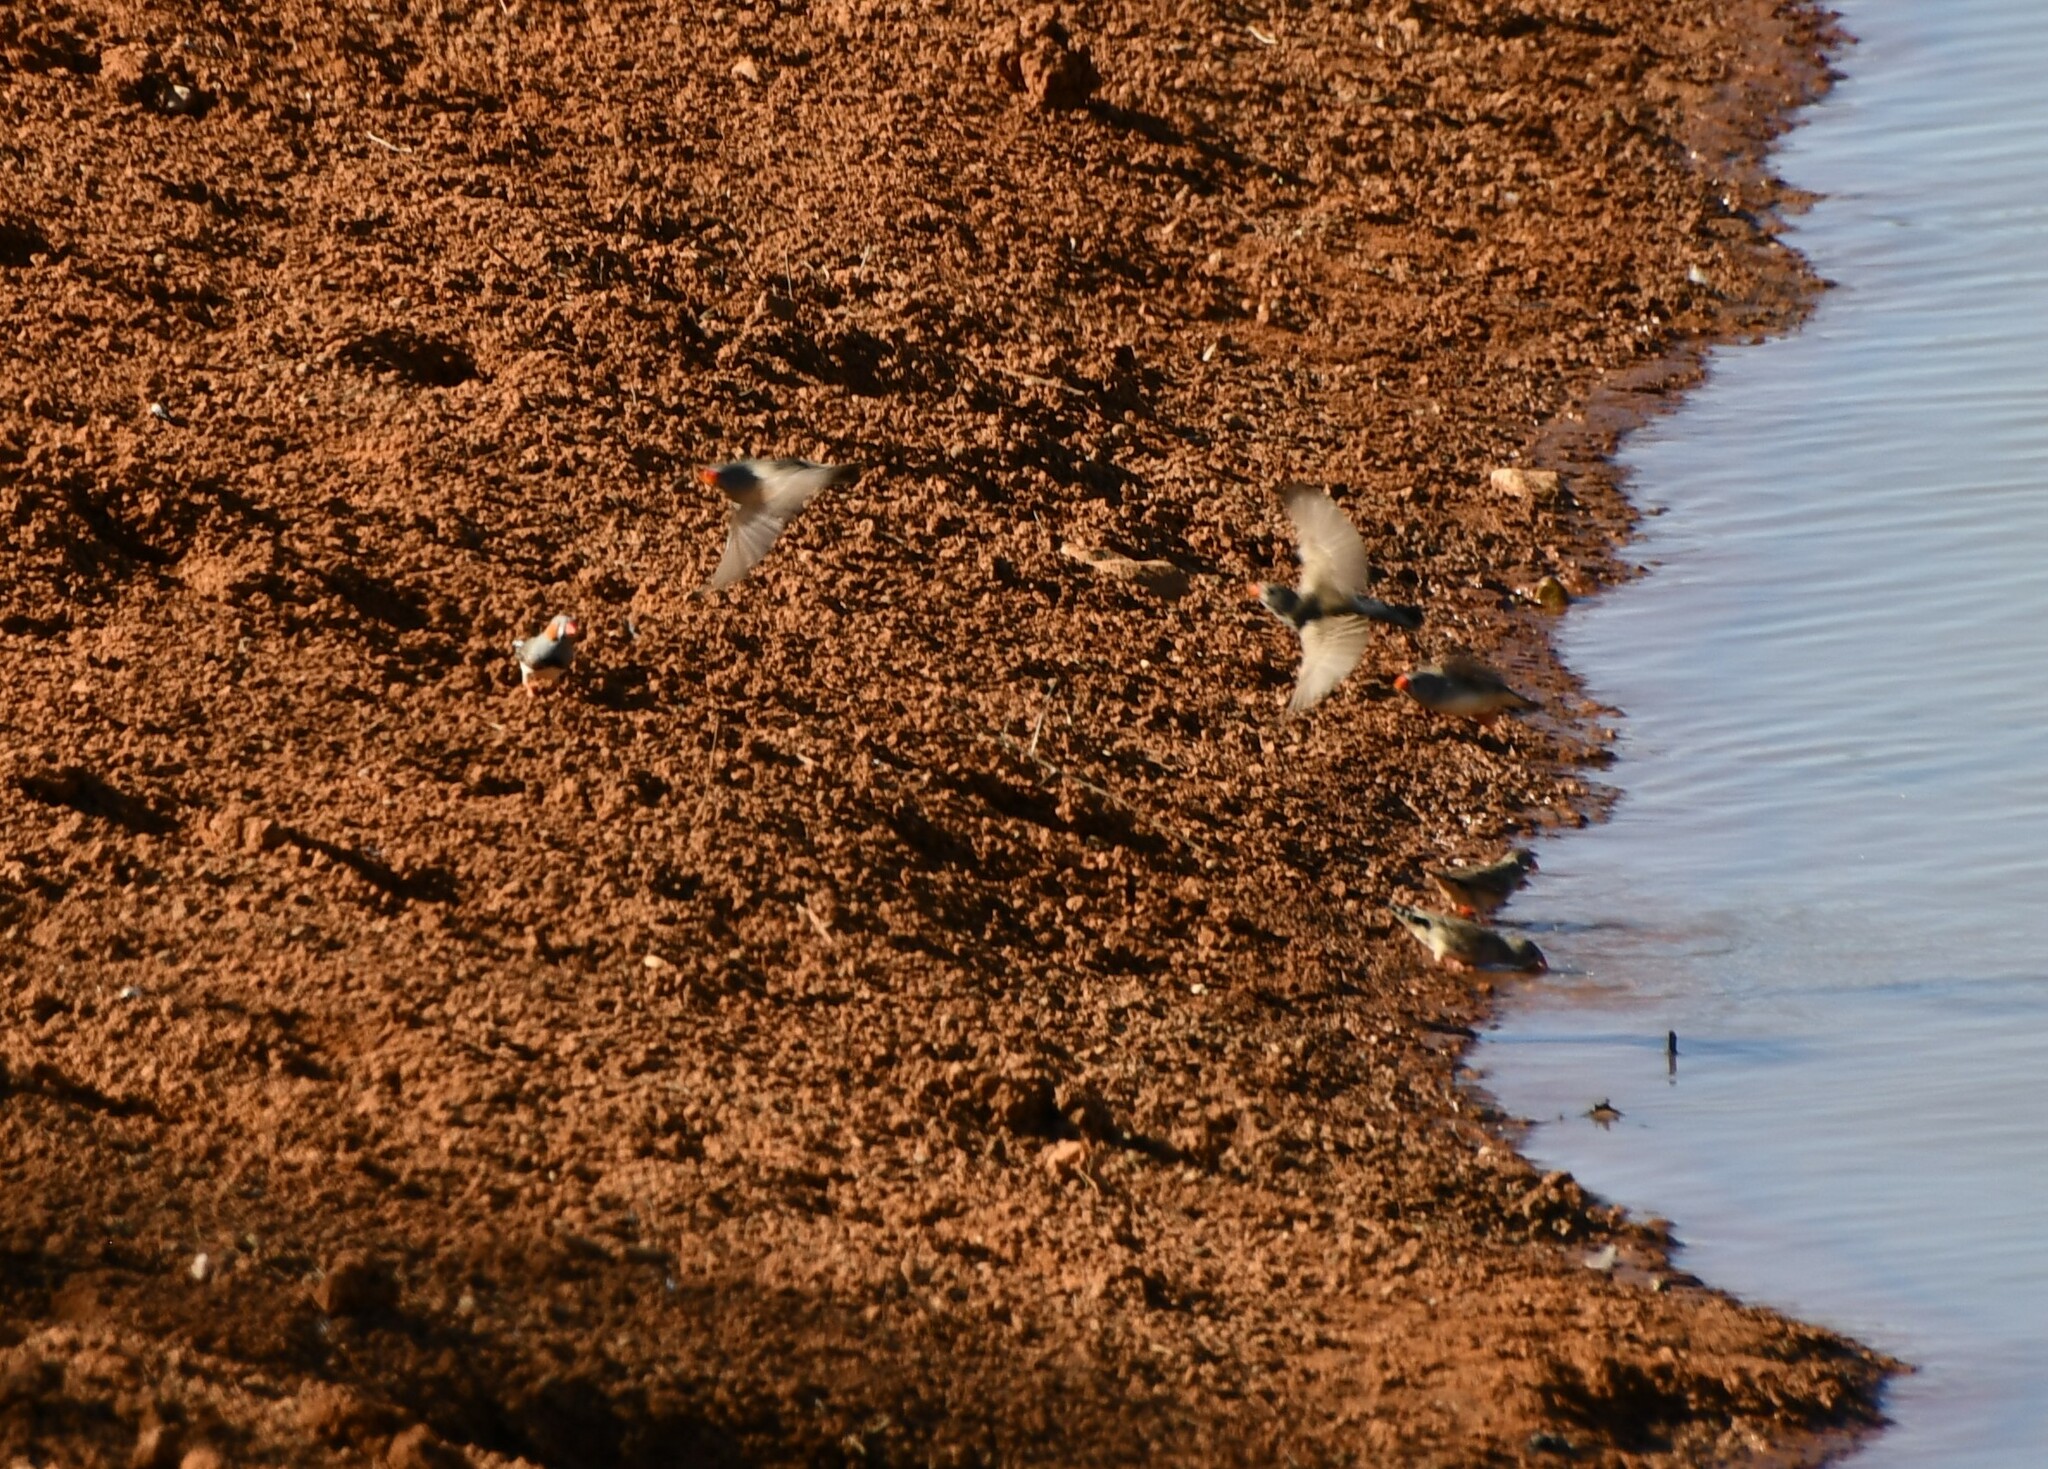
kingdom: Animalia
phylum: Chordata
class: Aves
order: Passeriformes
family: Estrildidae
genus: Taeniopygia
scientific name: Taeniopygia guttata
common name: Zebra finch
